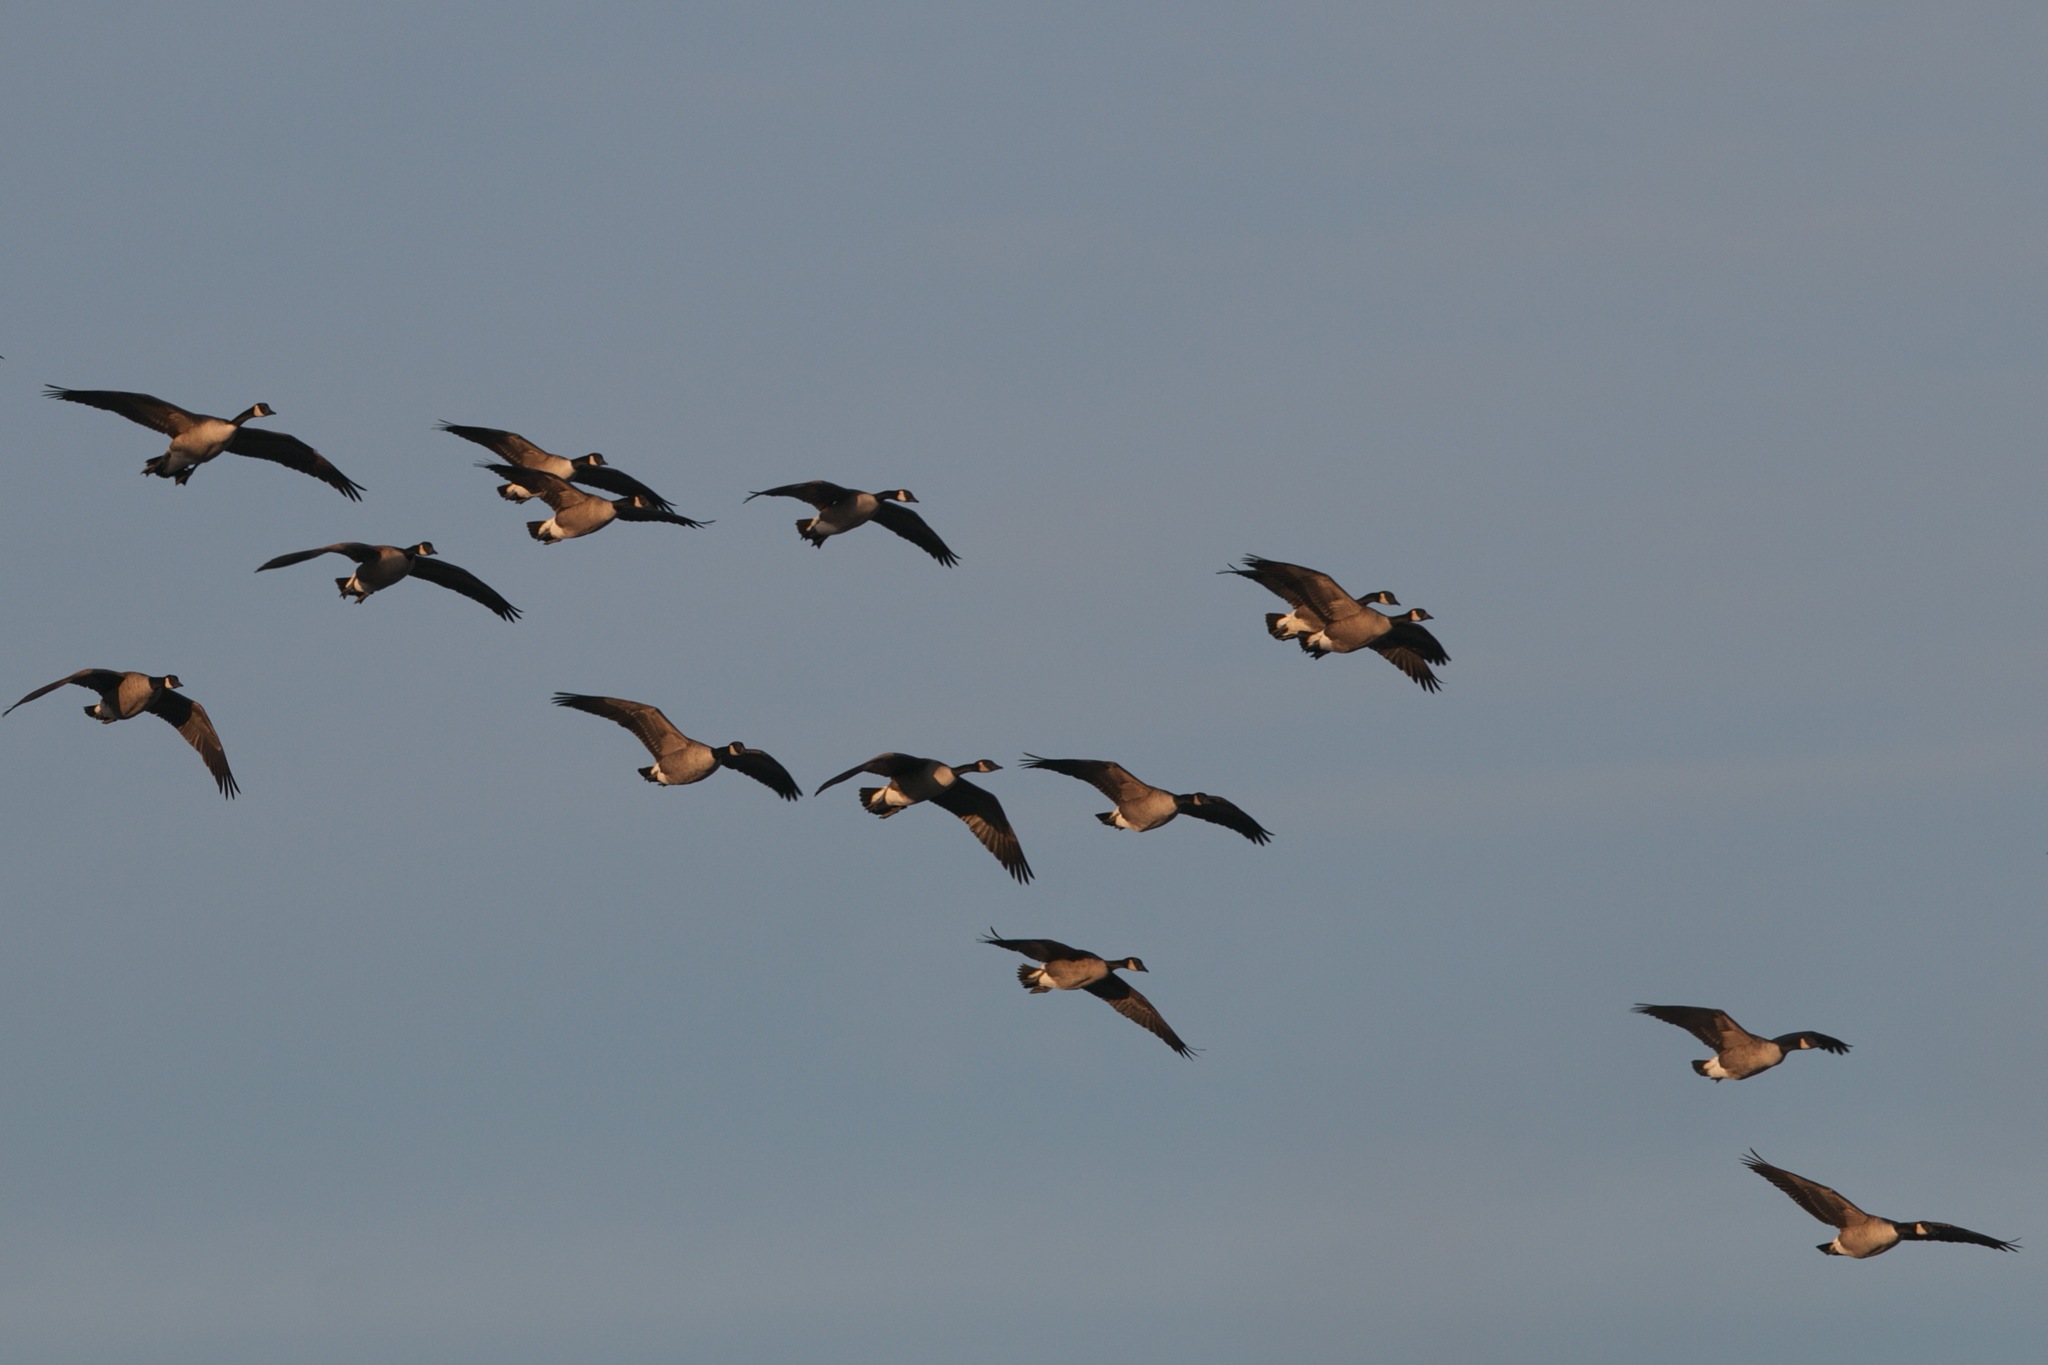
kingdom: Animalia
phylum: Chordata
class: Aves
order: Anseriformes
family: Anatidae
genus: Branta
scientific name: Branta canadensis
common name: Canada goose
